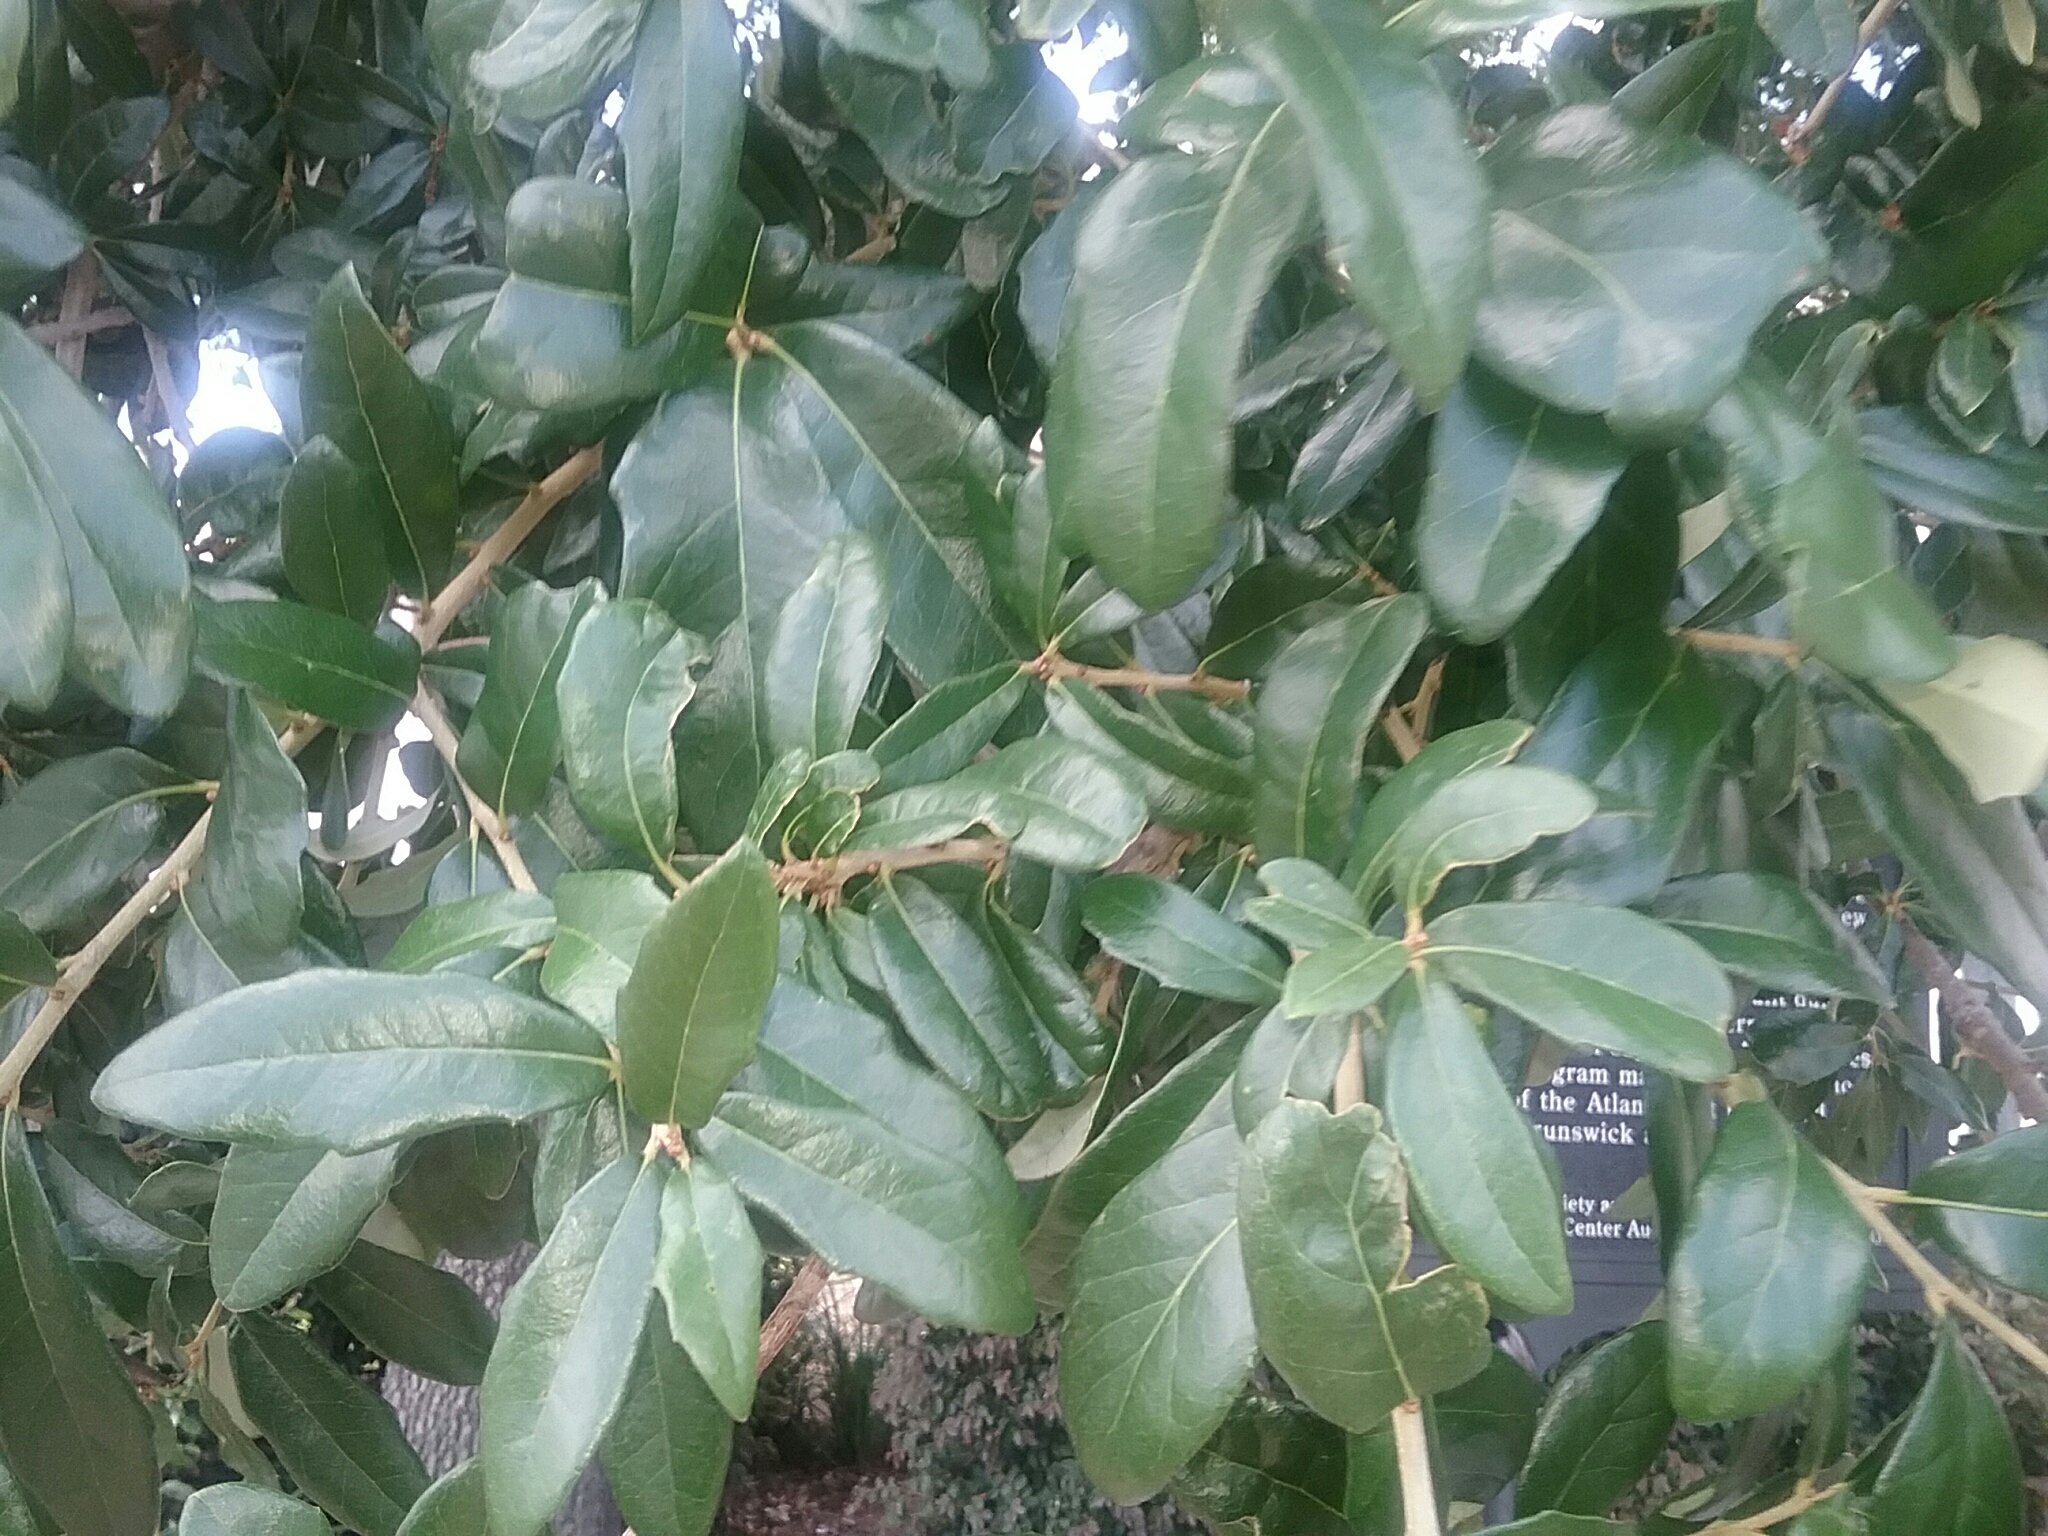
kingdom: Plantae
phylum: Tracheophyta
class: Magnoliopsida
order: Fagales
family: Fagaceae
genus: Quercus
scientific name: Quercus virginiana
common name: Southern live oak
